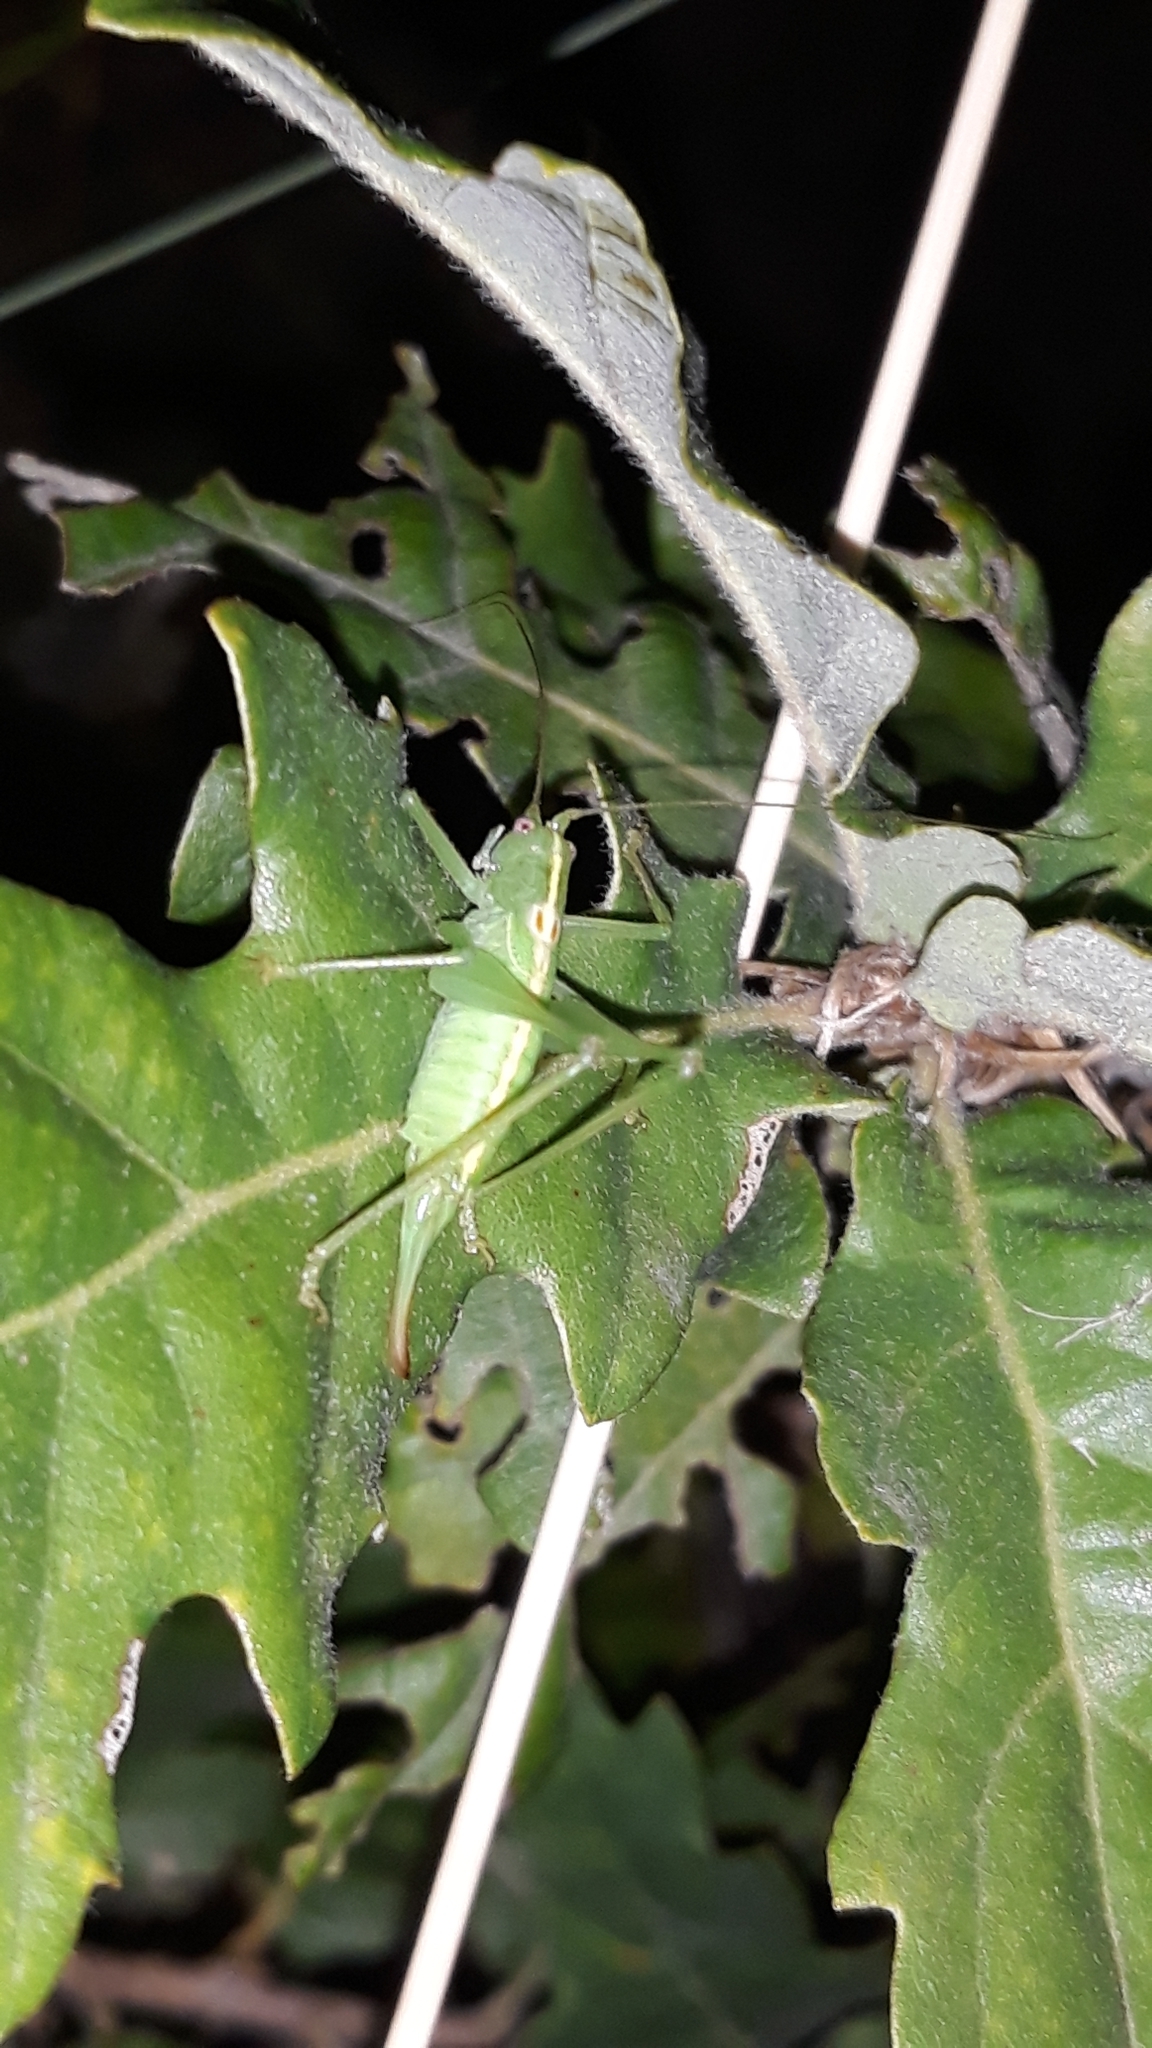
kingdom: Animalia
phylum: Arthropoda
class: Insecta
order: Orthoptera
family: Tettigoniidae
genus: Meconema
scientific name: Meconema meridionale
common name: Southern oak bush-cricket
